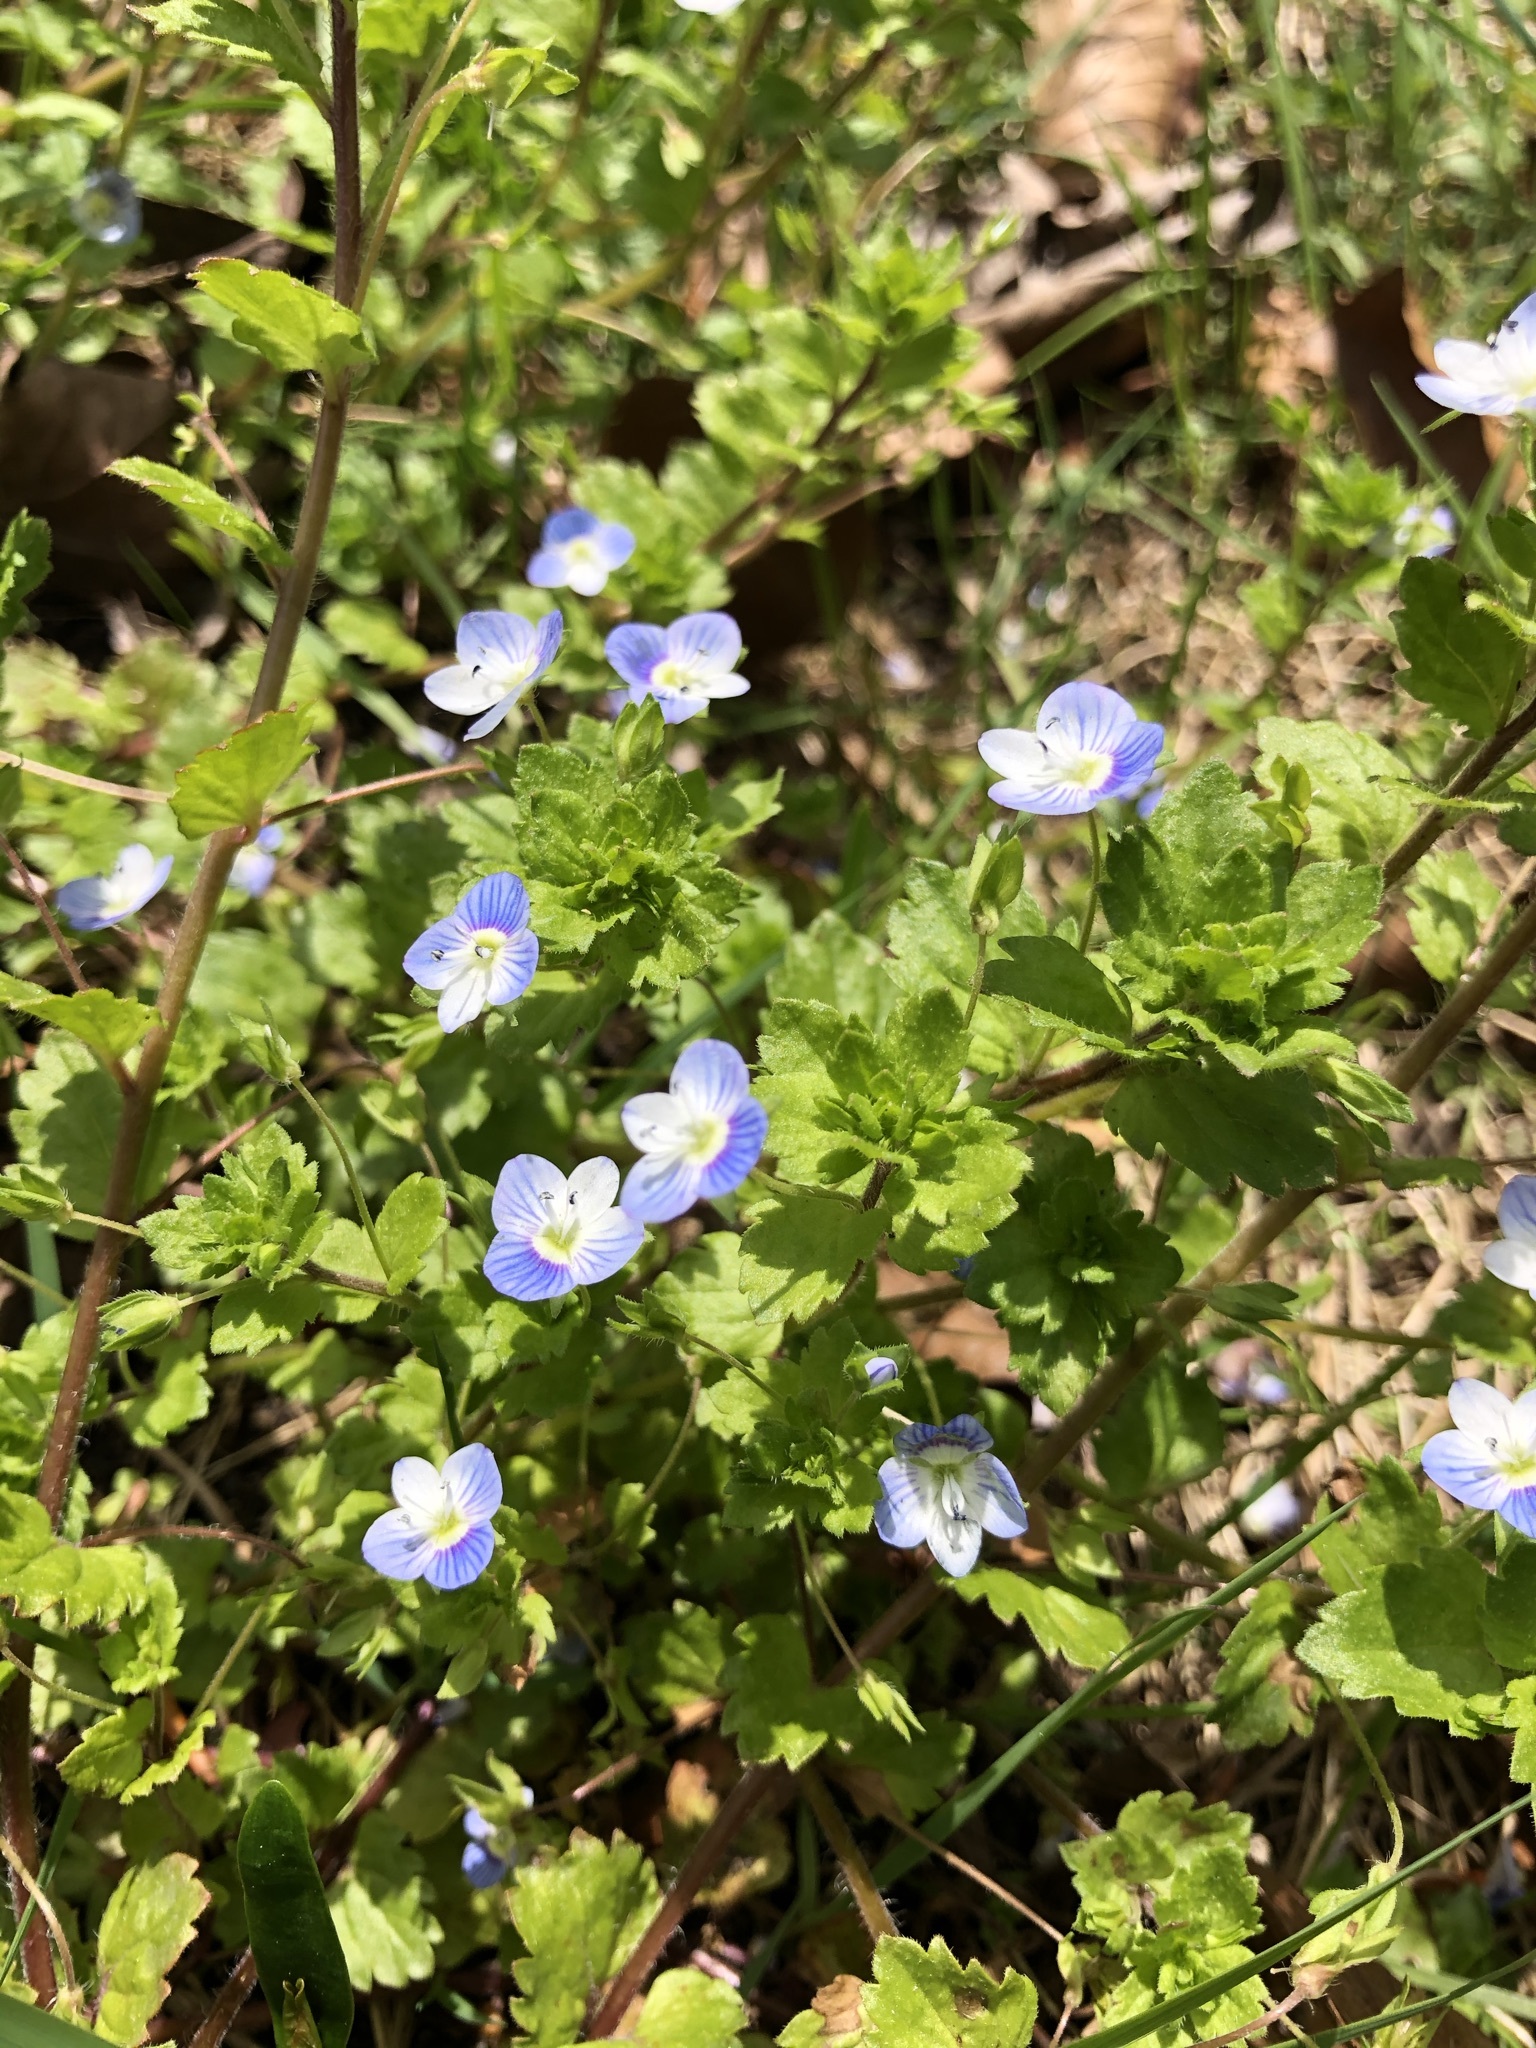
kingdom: Plantae
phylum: Tracheophyta
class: Magnoliopsida
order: Lamiales
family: Plantaginaceae
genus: Veronica
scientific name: Veronica persica
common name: Common field-speedwell
